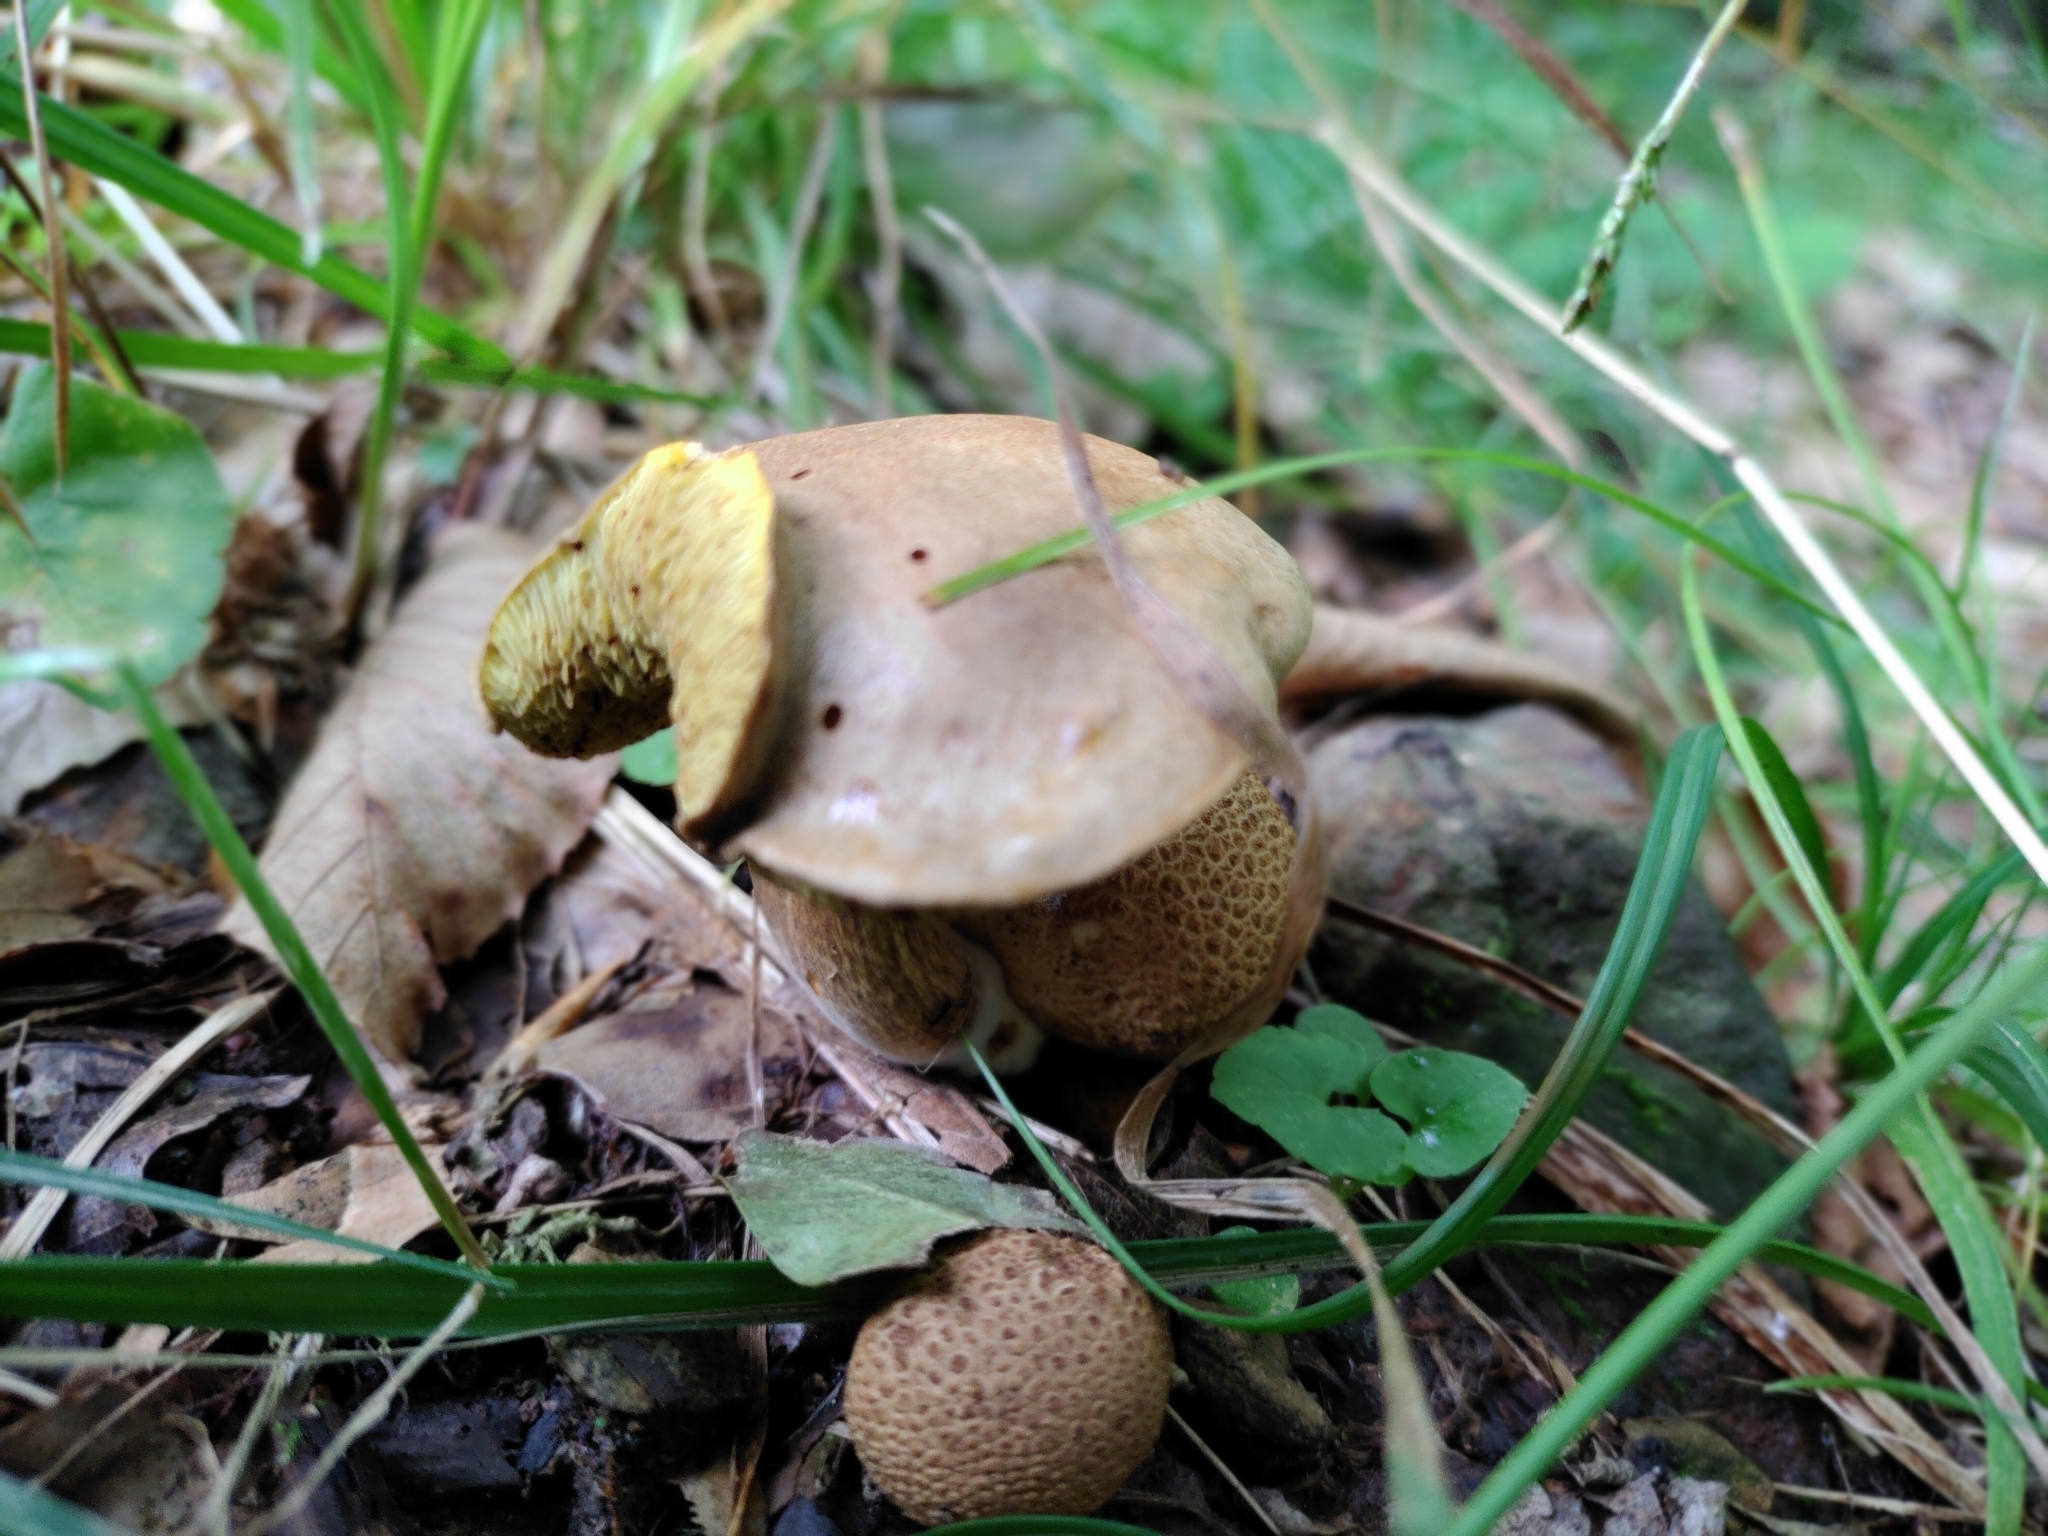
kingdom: Fungi
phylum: Basidiomycota
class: Agaricomycetes
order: Boletales
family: Boletaceae
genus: Pseudoboletus
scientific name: Pseudoboletus parasiticus
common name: Parasitic bolete
